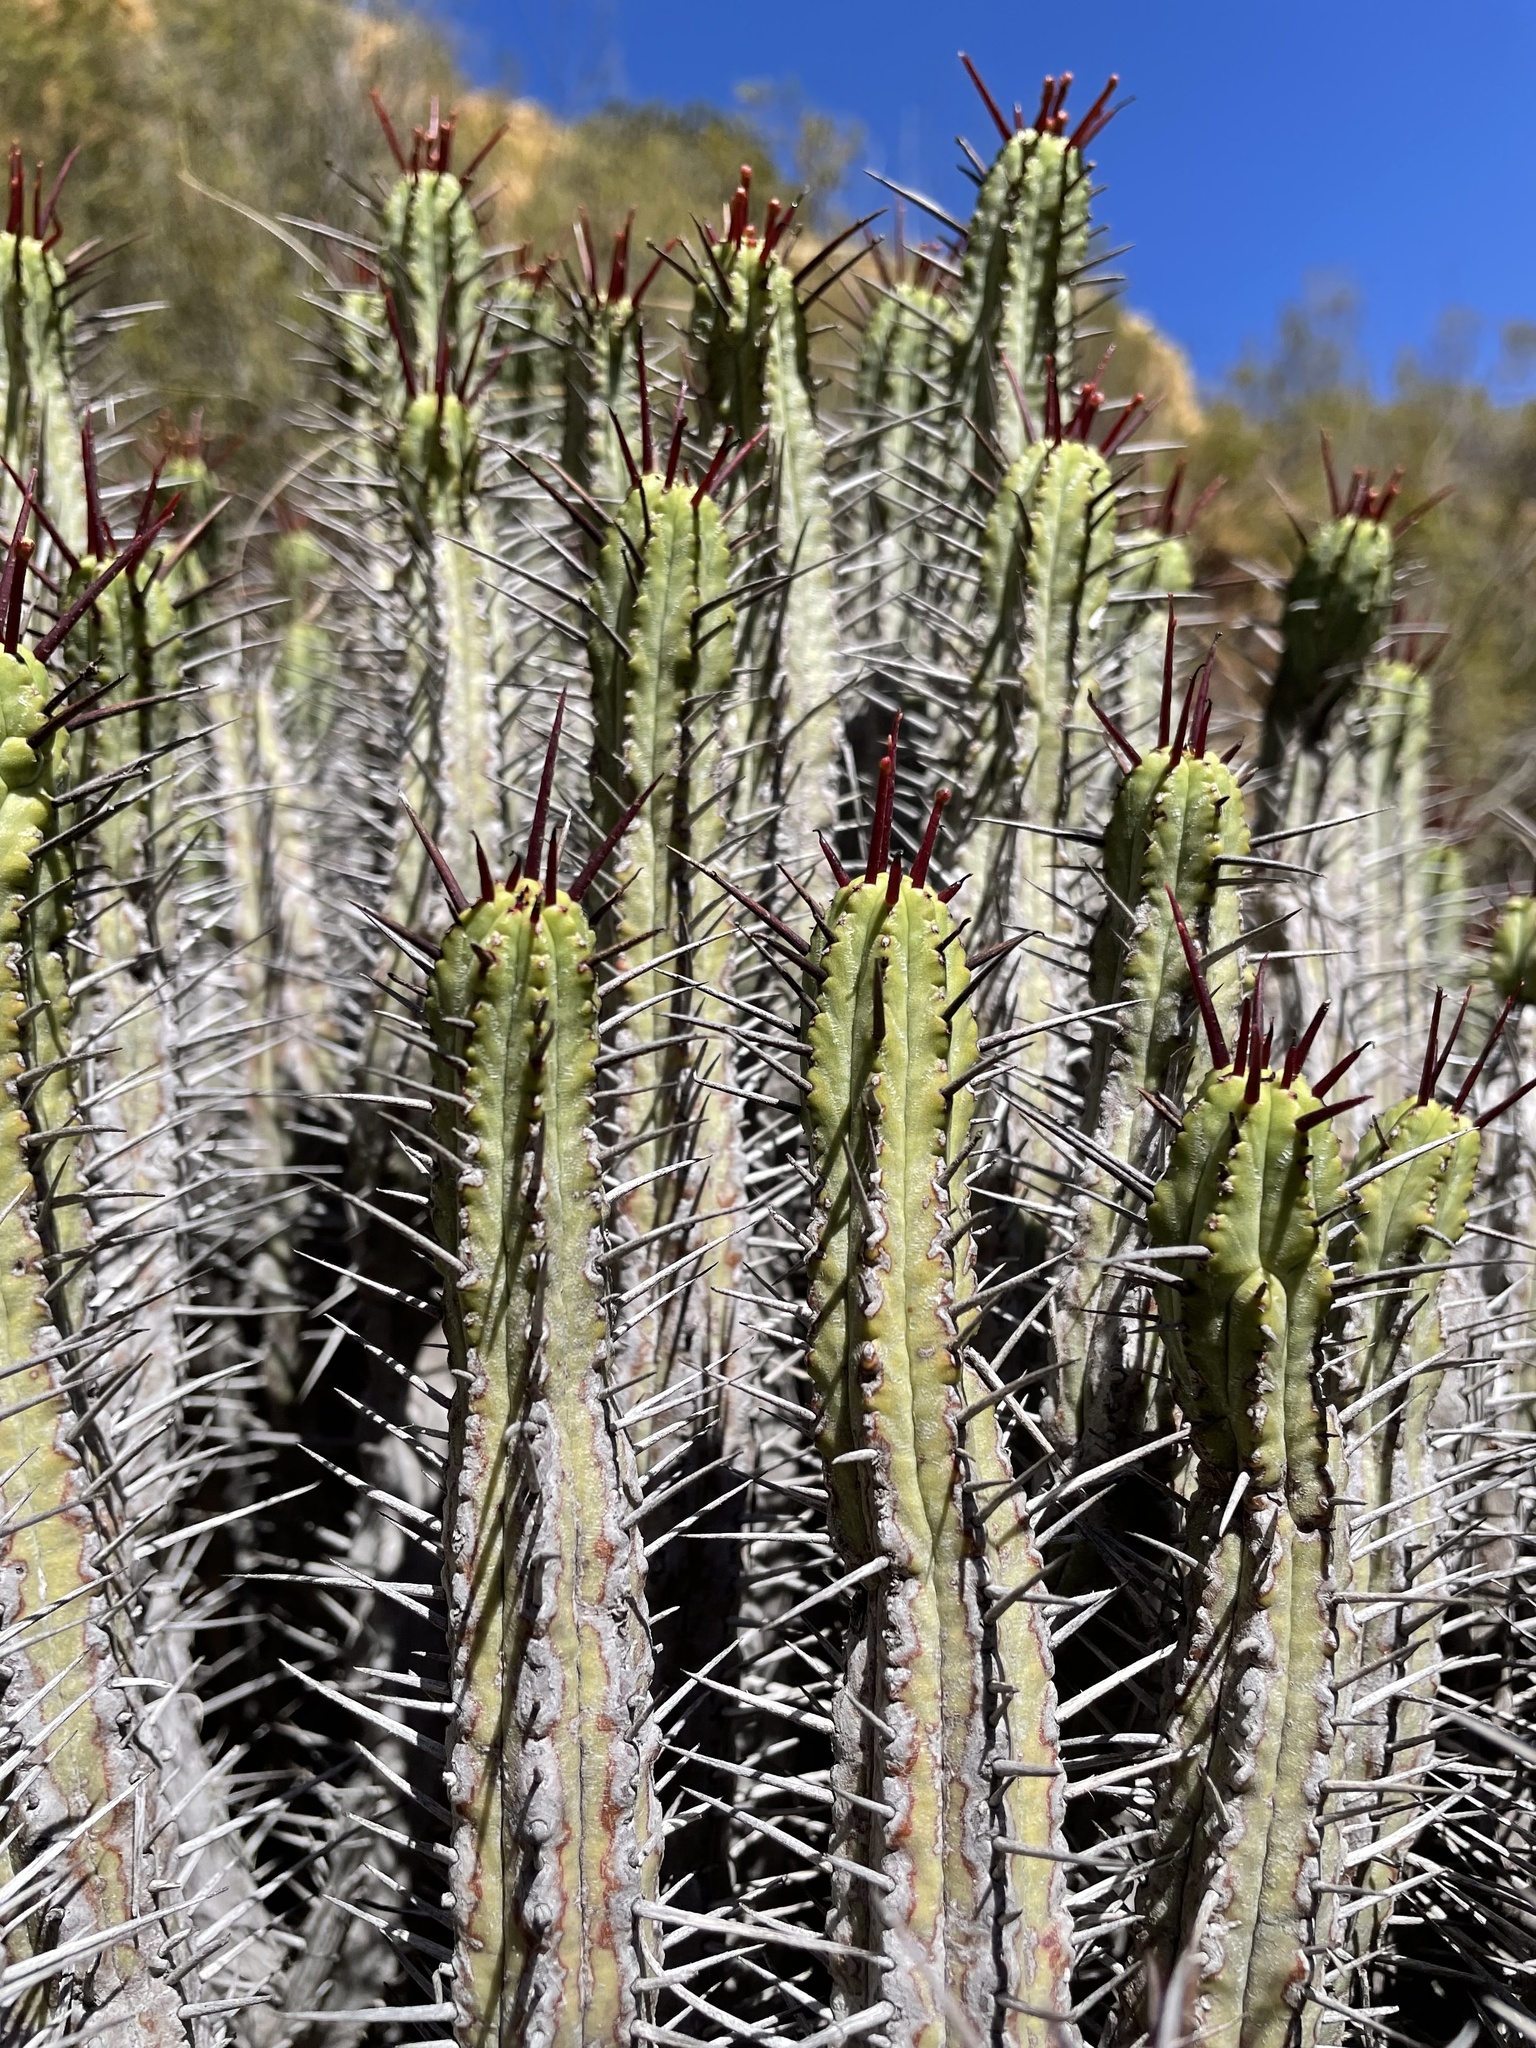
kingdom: Plantae
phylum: Tracheophyta
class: Magnoliopsida
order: Malpighiales
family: Euphorbiaceae
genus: Euphorbia
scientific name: Euphorbia heptagona
